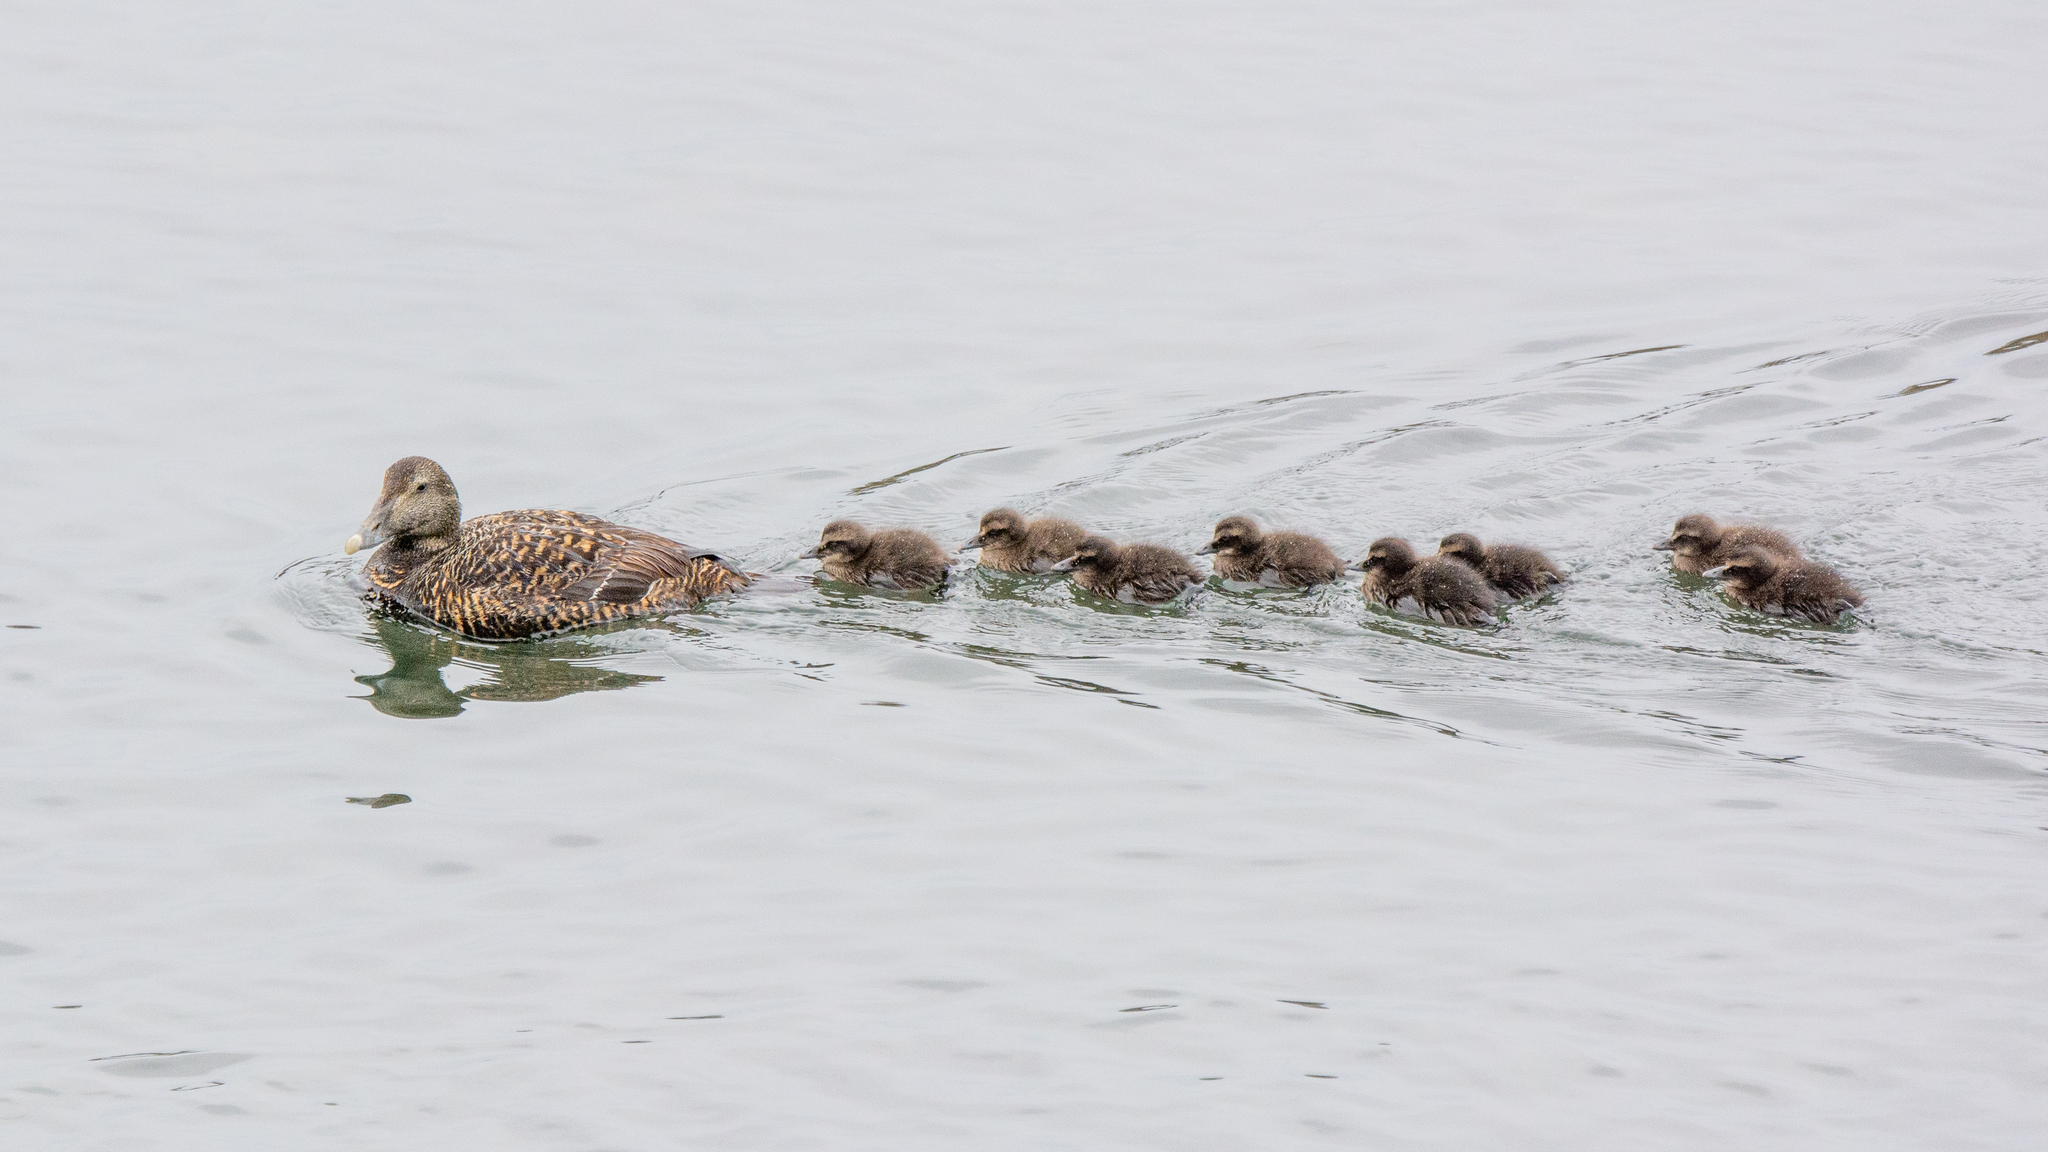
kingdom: Animalia
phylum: Chordata
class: Aves
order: Anseriformes
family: Anatidae
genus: Somateria
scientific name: Somateria mollissima
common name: Common eider
